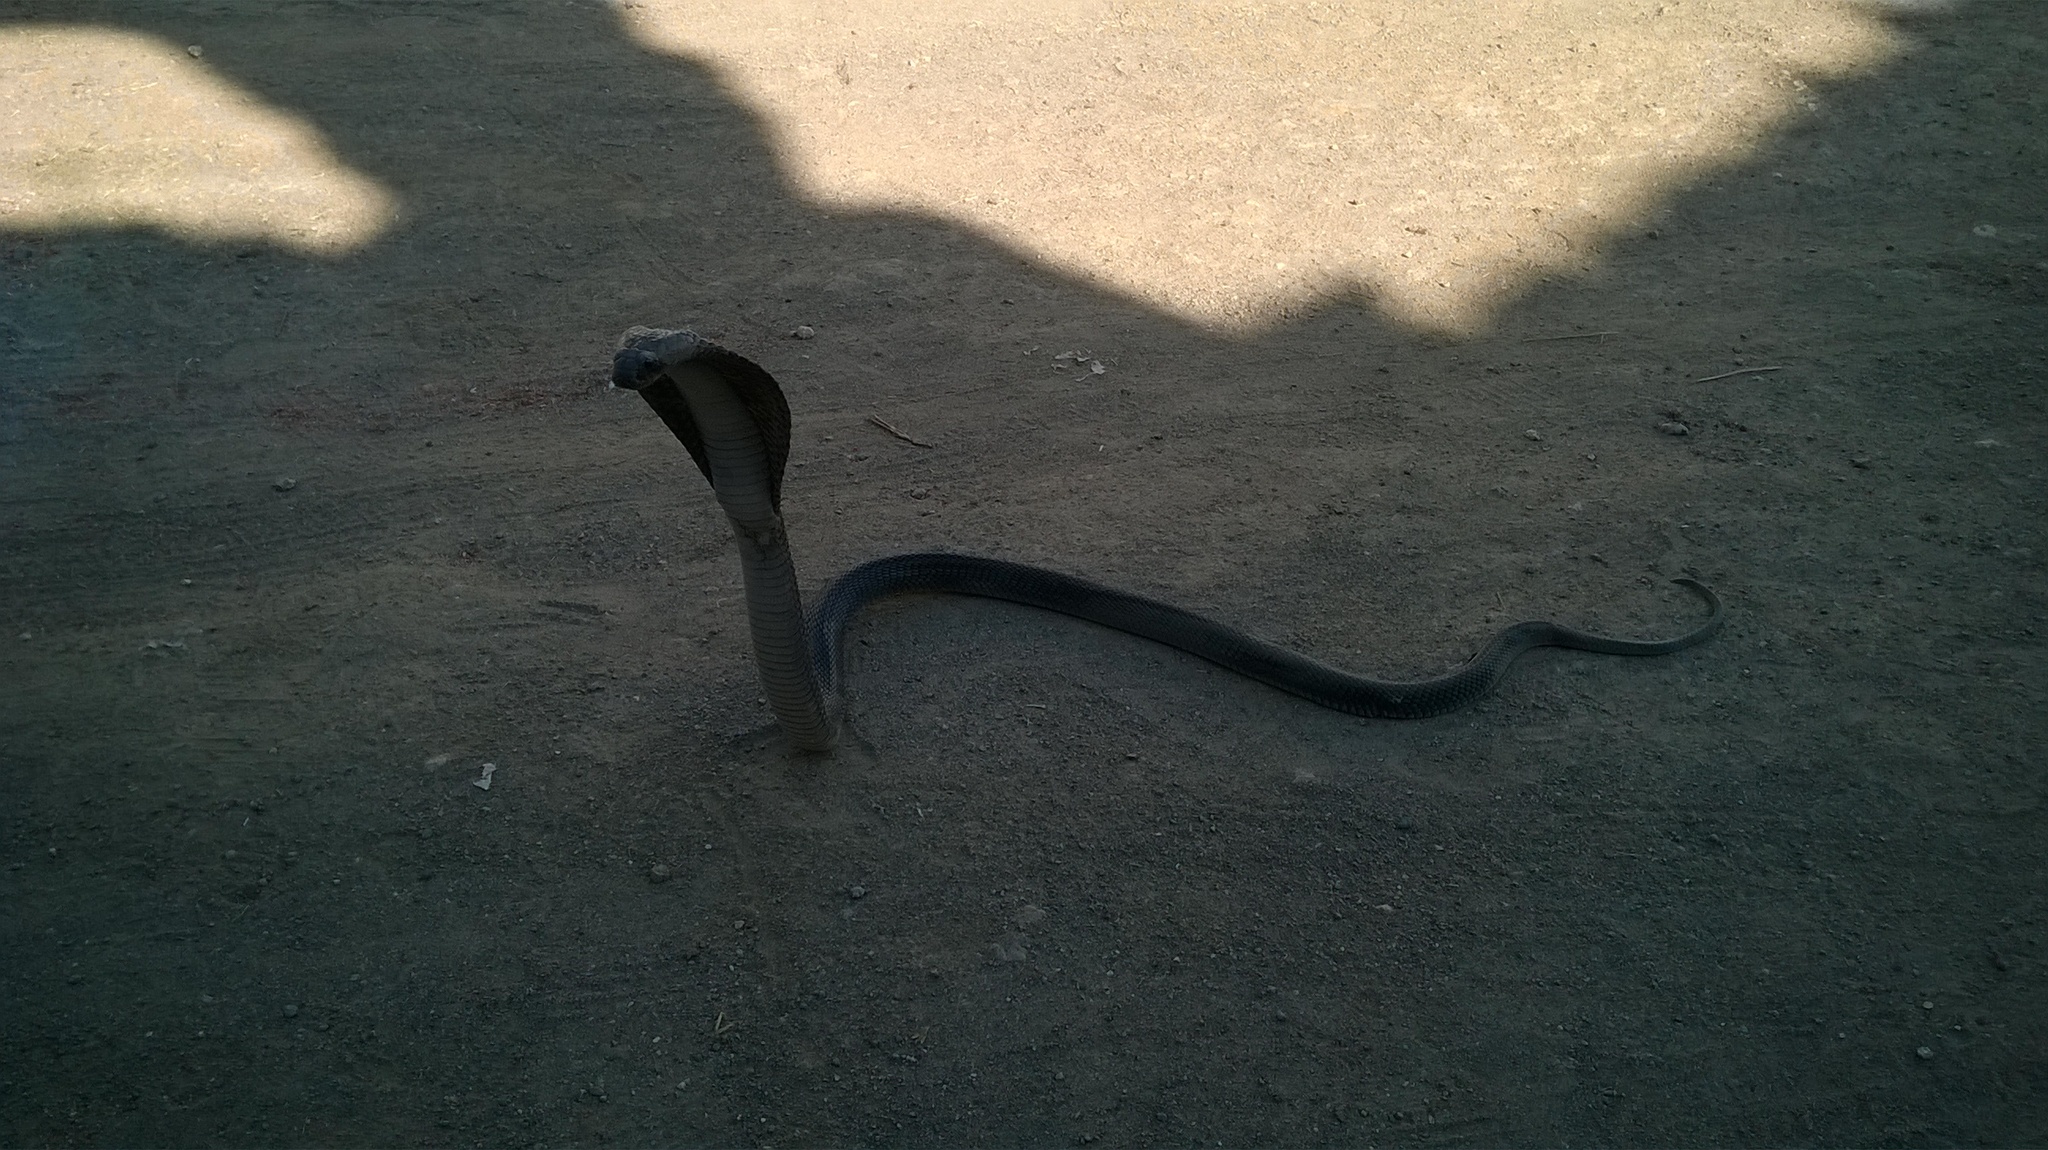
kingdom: Animalia
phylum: Chordata
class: Squamata
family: Elapidae
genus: Naja
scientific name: Naja naja
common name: Indian cobra
